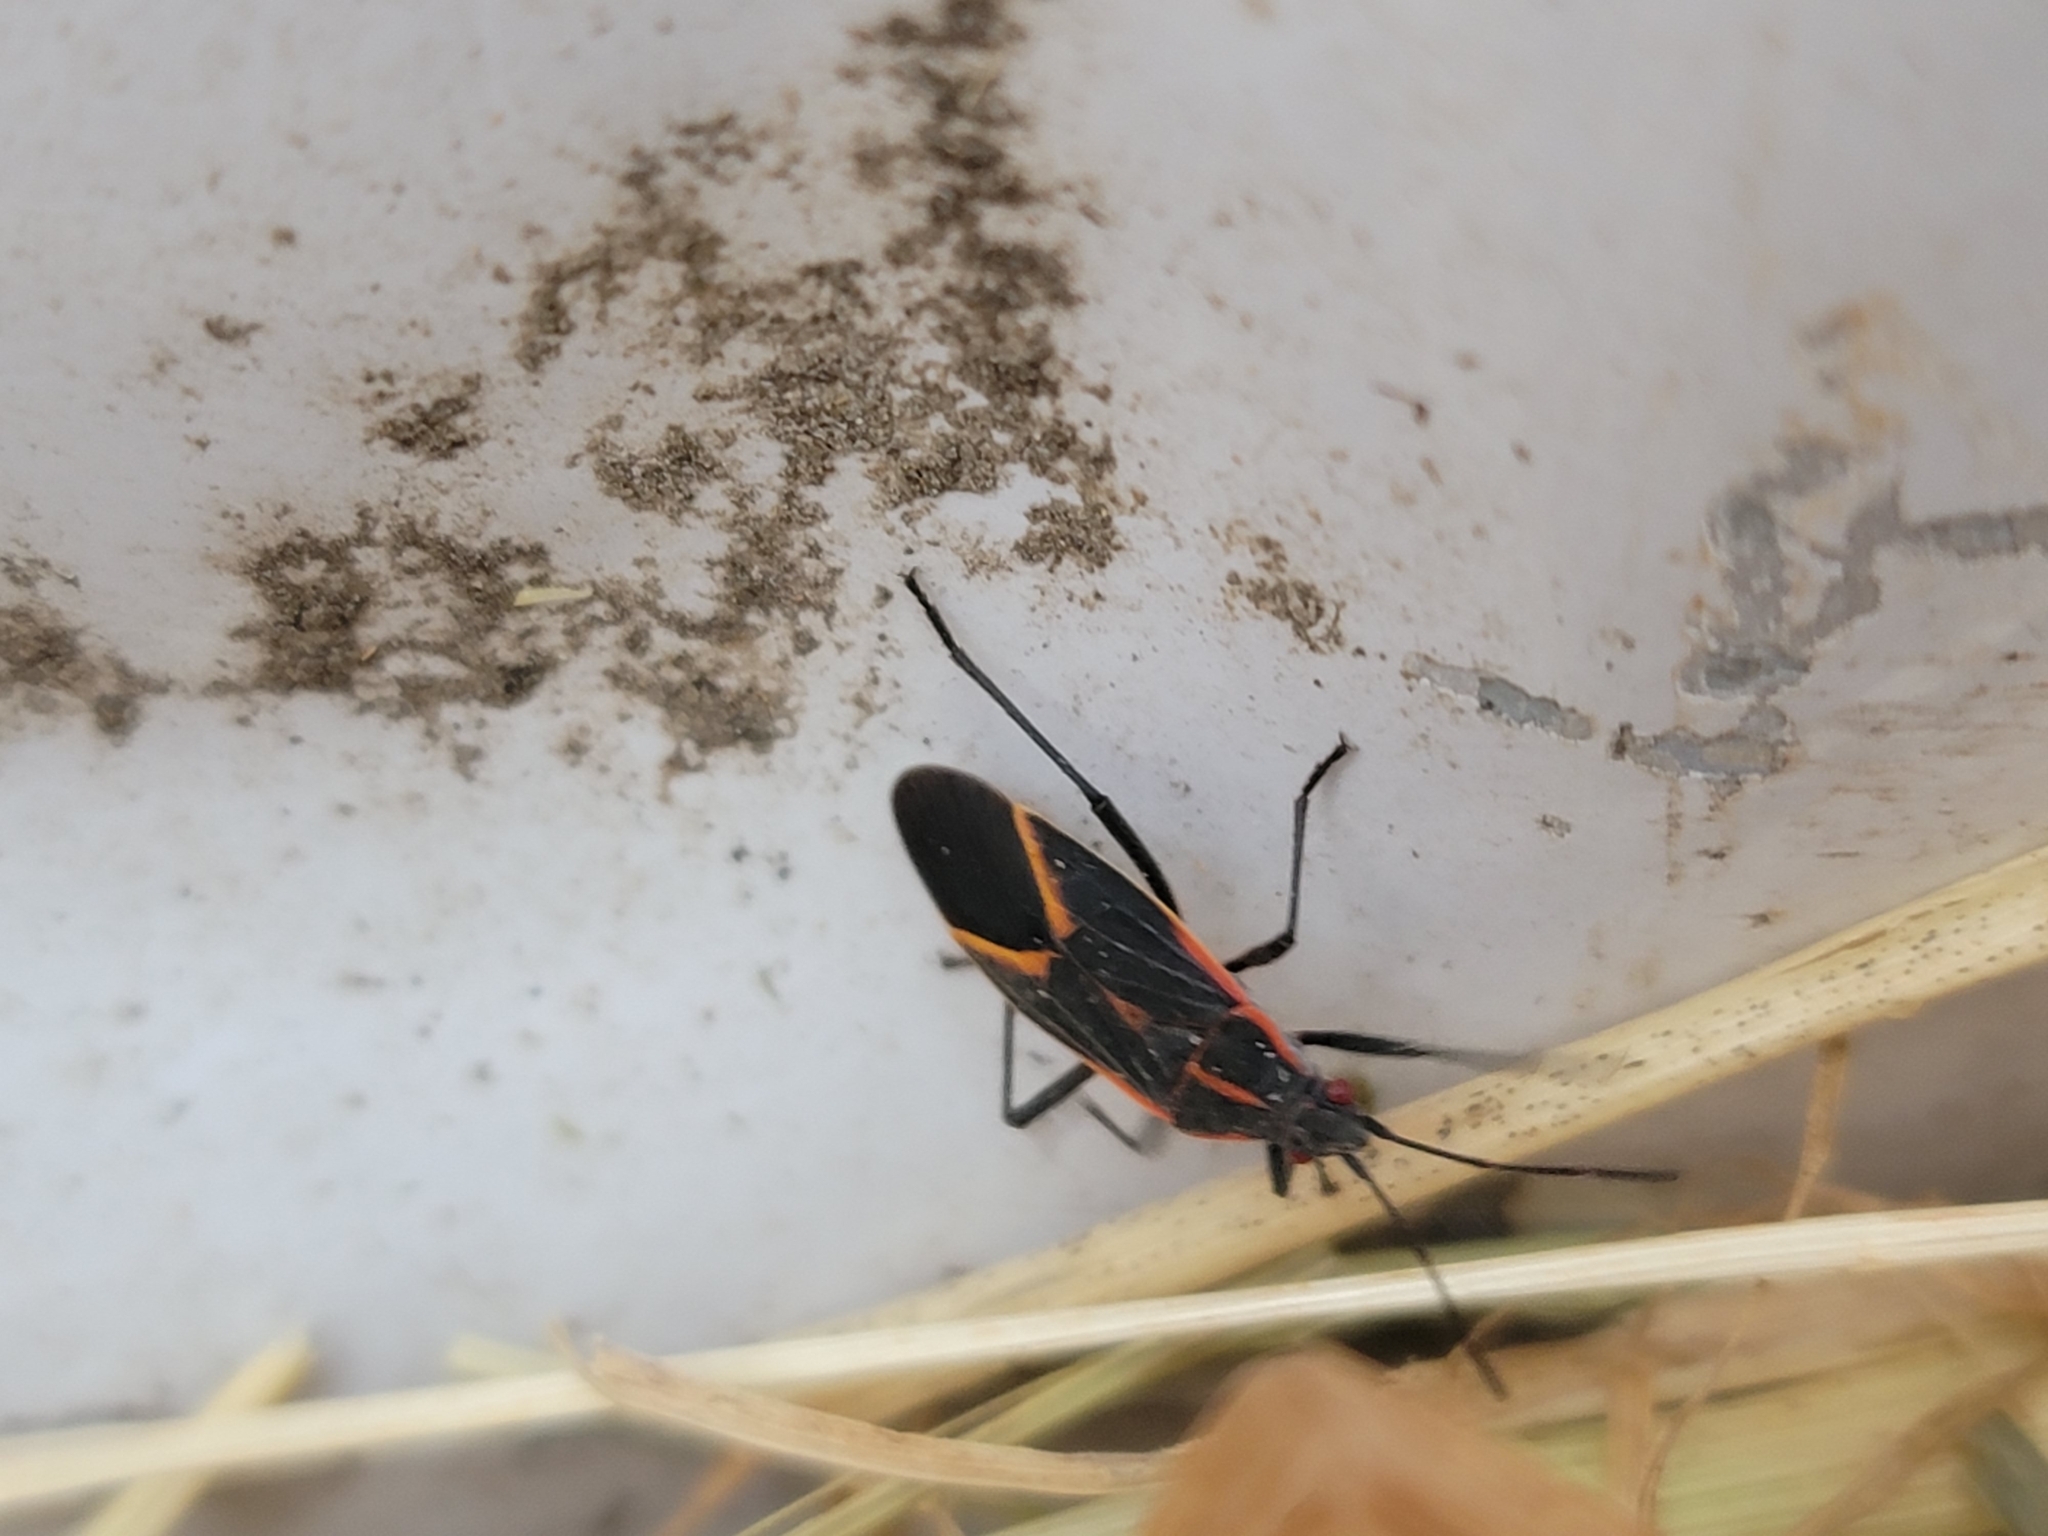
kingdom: Animalia
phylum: Arthropoda
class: Insecta
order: Hemiptera
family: Rhopalidae
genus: Boisea
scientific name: Boisea trivittata
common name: Boxelder bug
